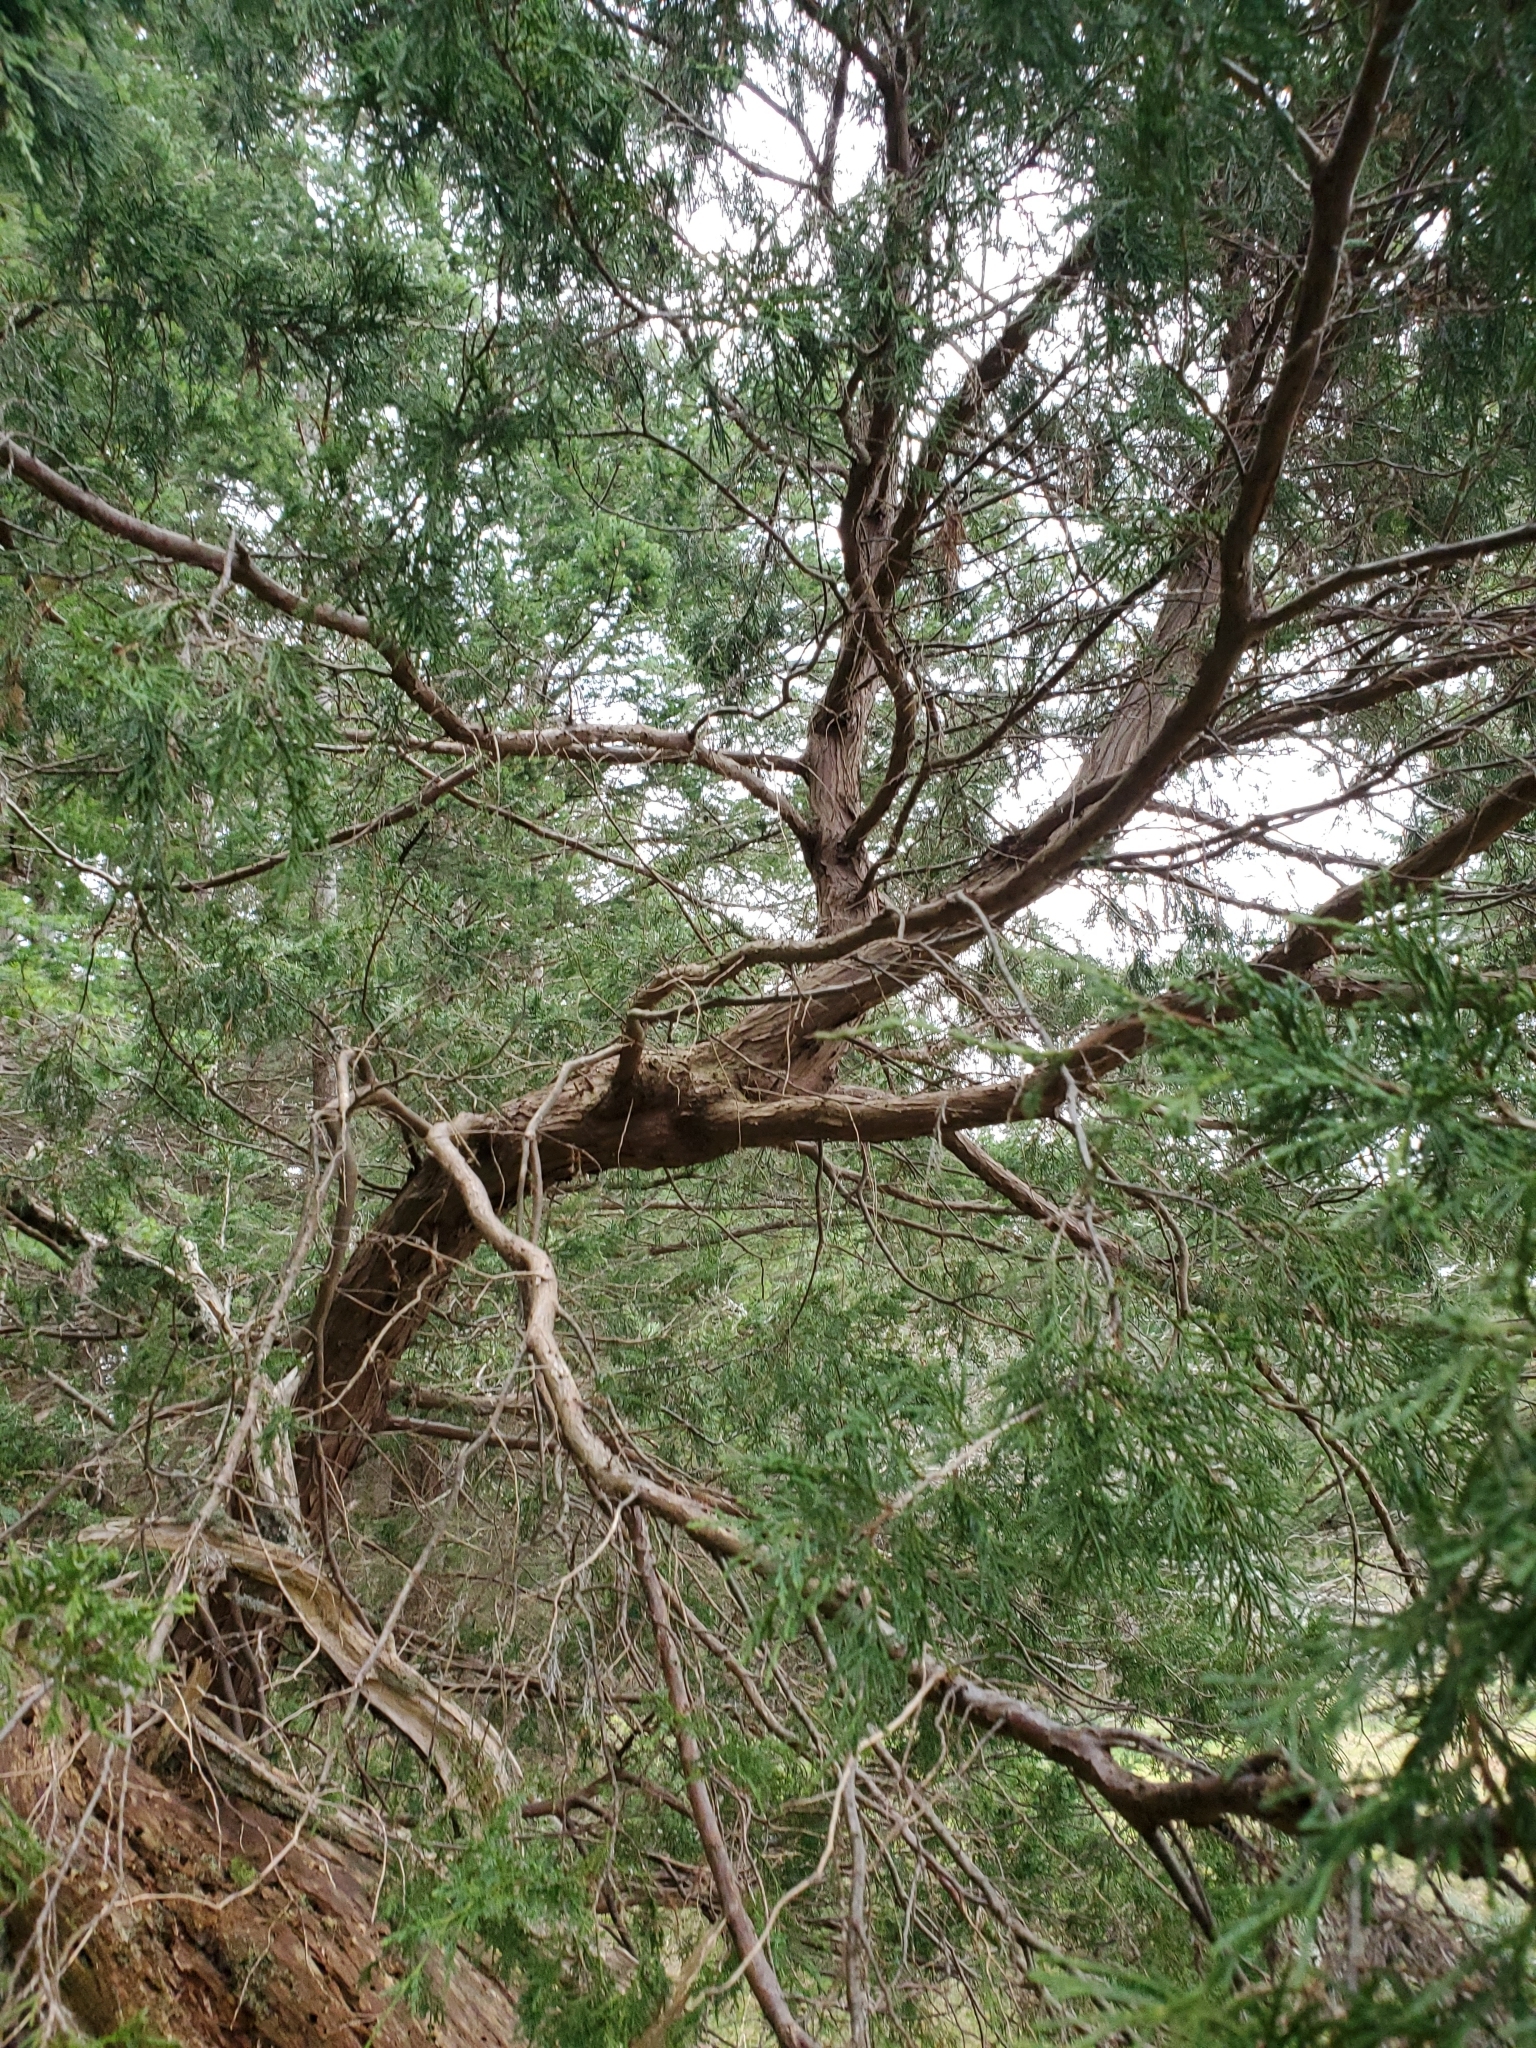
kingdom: Plantae
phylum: Tracheophyta
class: Pinopsida
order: Pinales
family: Cupressaceae
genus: Juniperus
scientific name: Juniperus scopulorum
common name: Rocky mountain juniper
